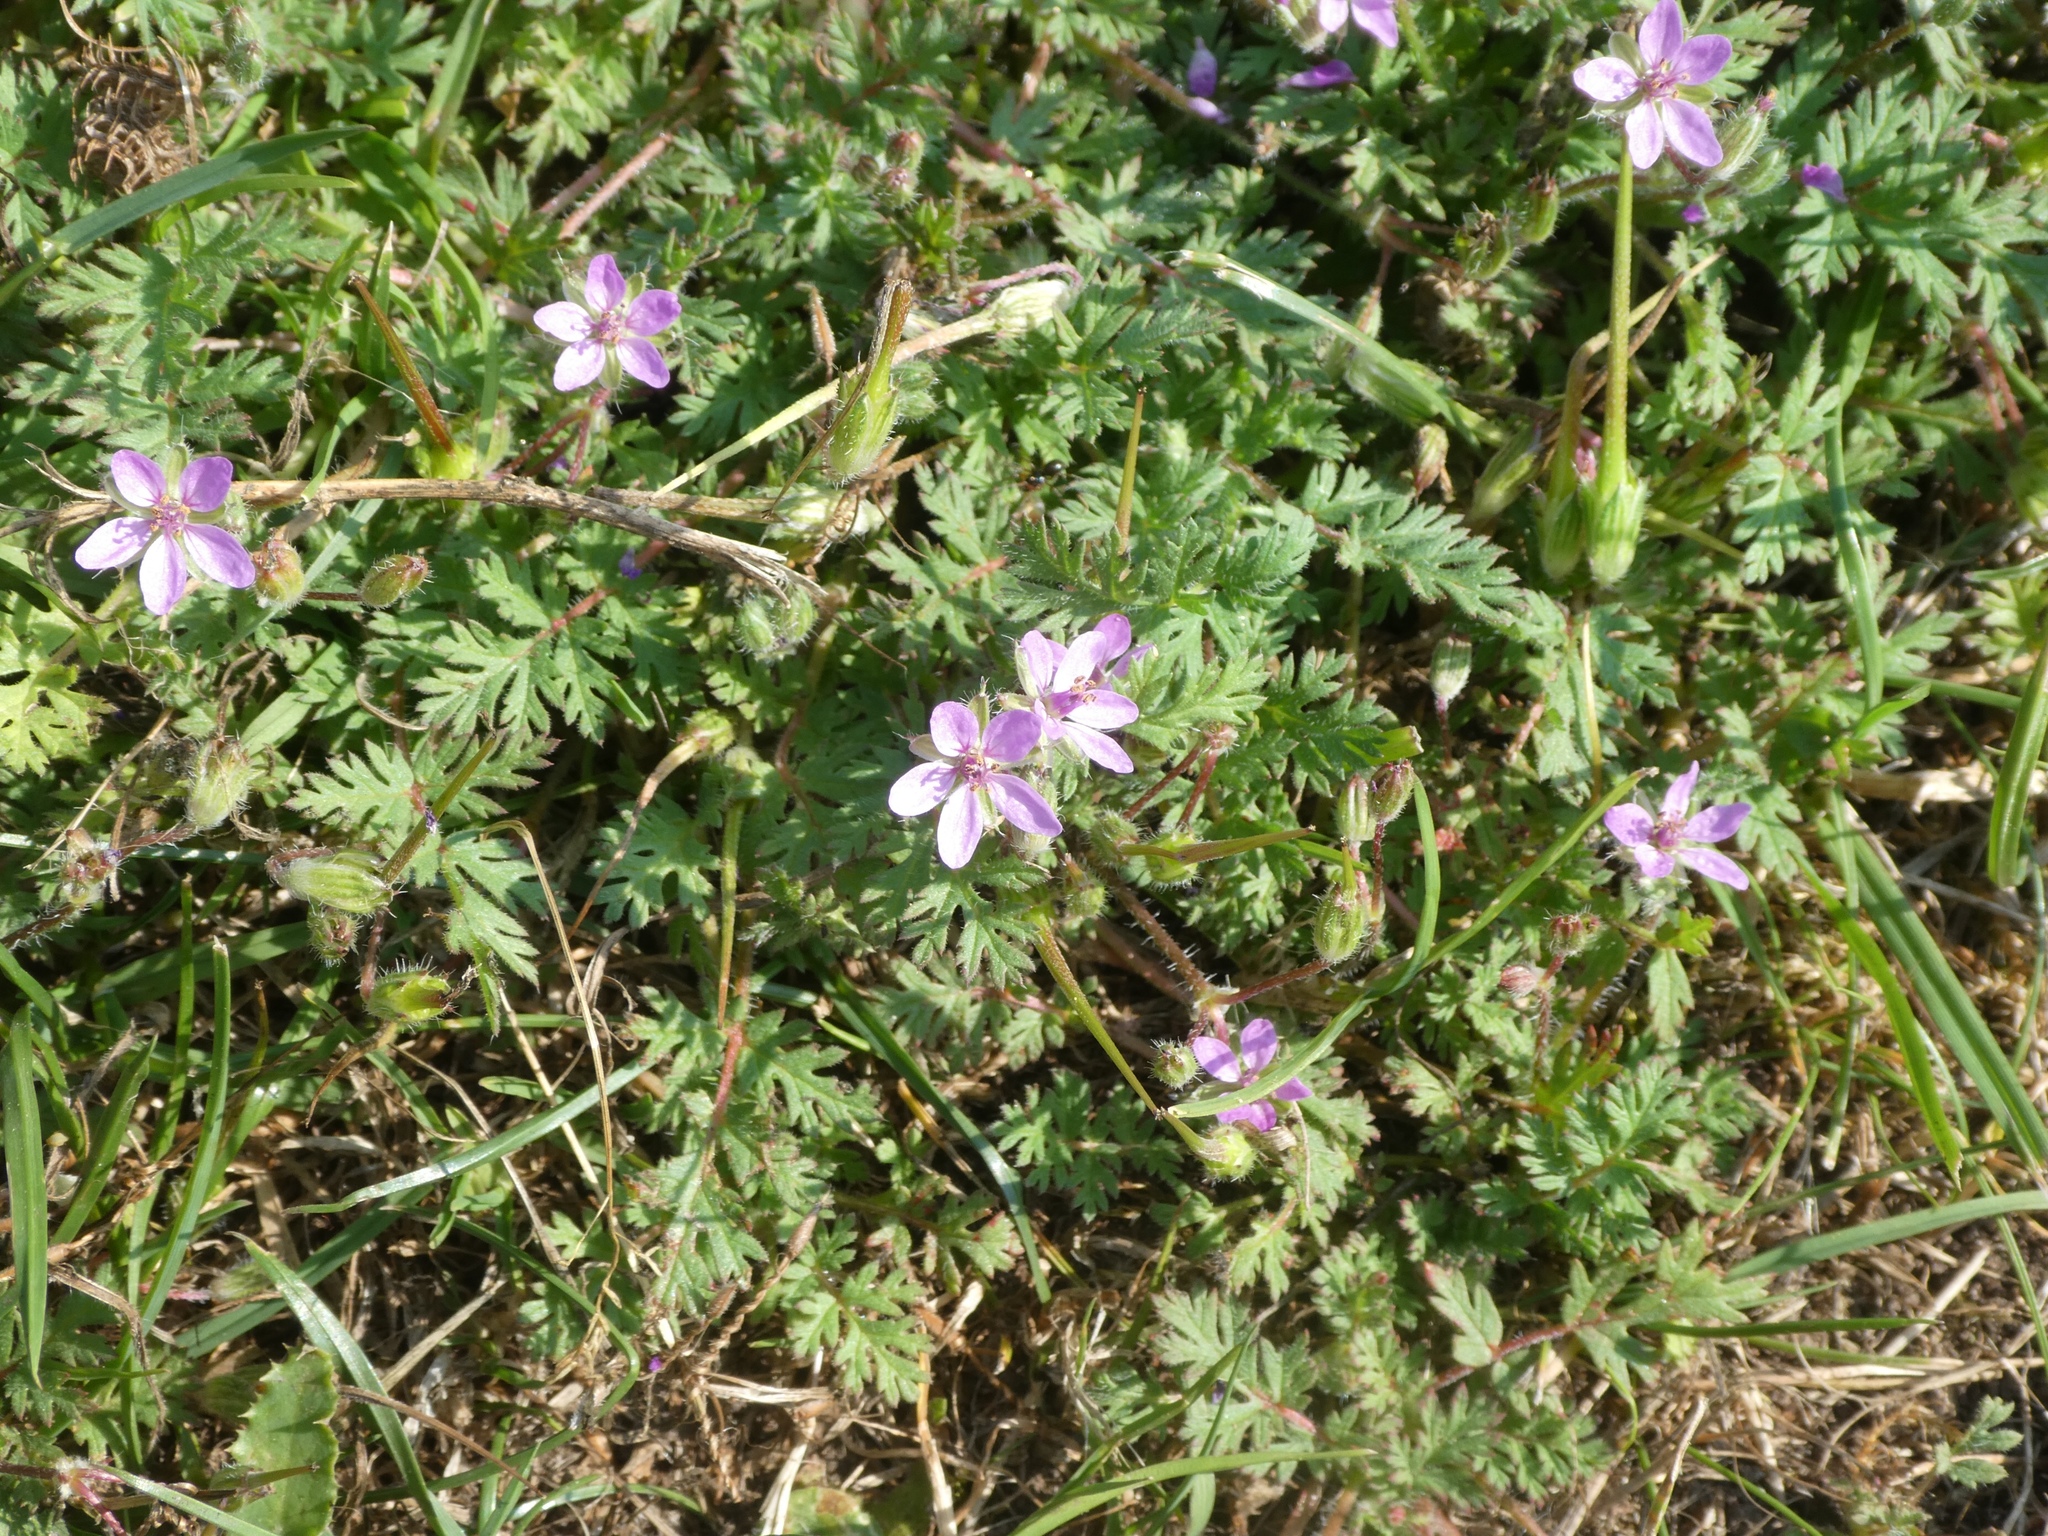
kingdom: Plantae
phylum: Tracheophyta
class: Magnoliopsida
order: Geraniales
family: Geraniaceae
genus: Erodium
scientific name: Erodium cicutarium
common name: Common stork's-bill
